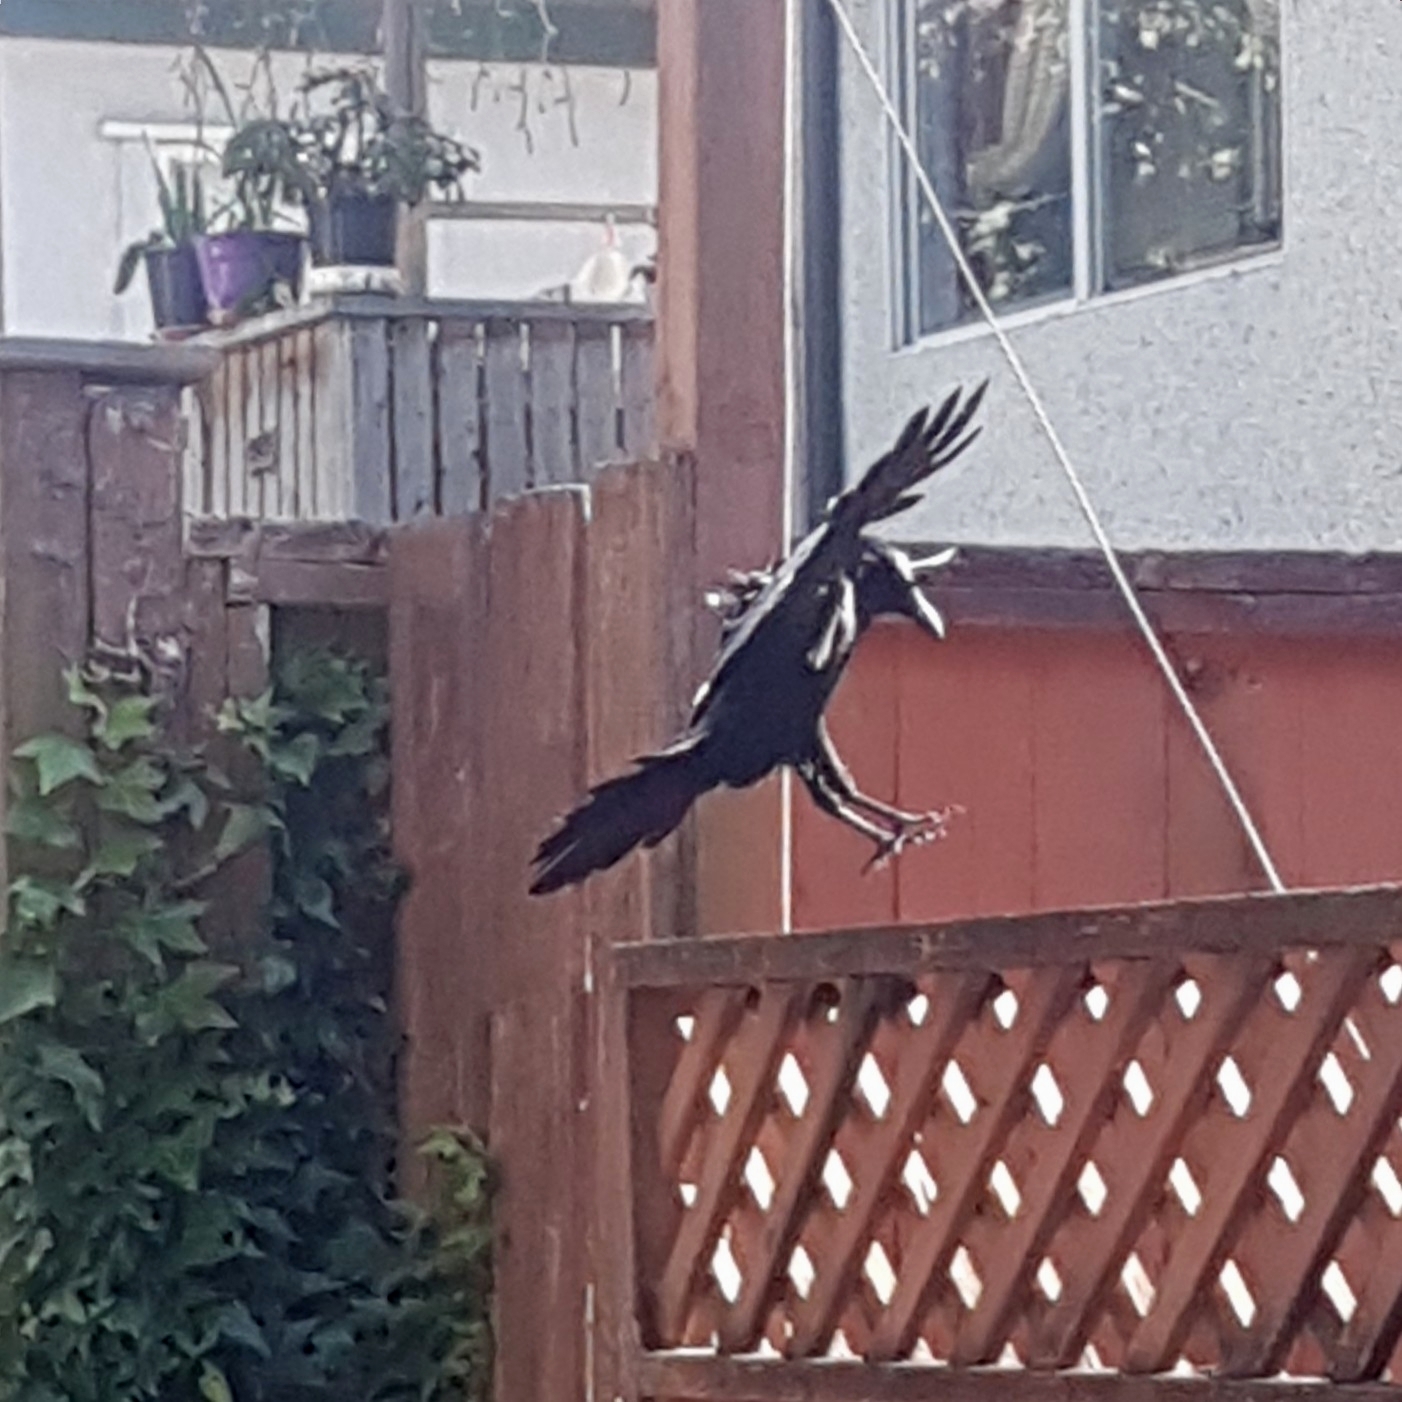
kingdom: Animalia
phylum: Chordata
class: Aves
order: Passeriformes
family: Corvidae
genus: Corvus
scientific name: Corvus brachyrhynchos
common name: American crow
